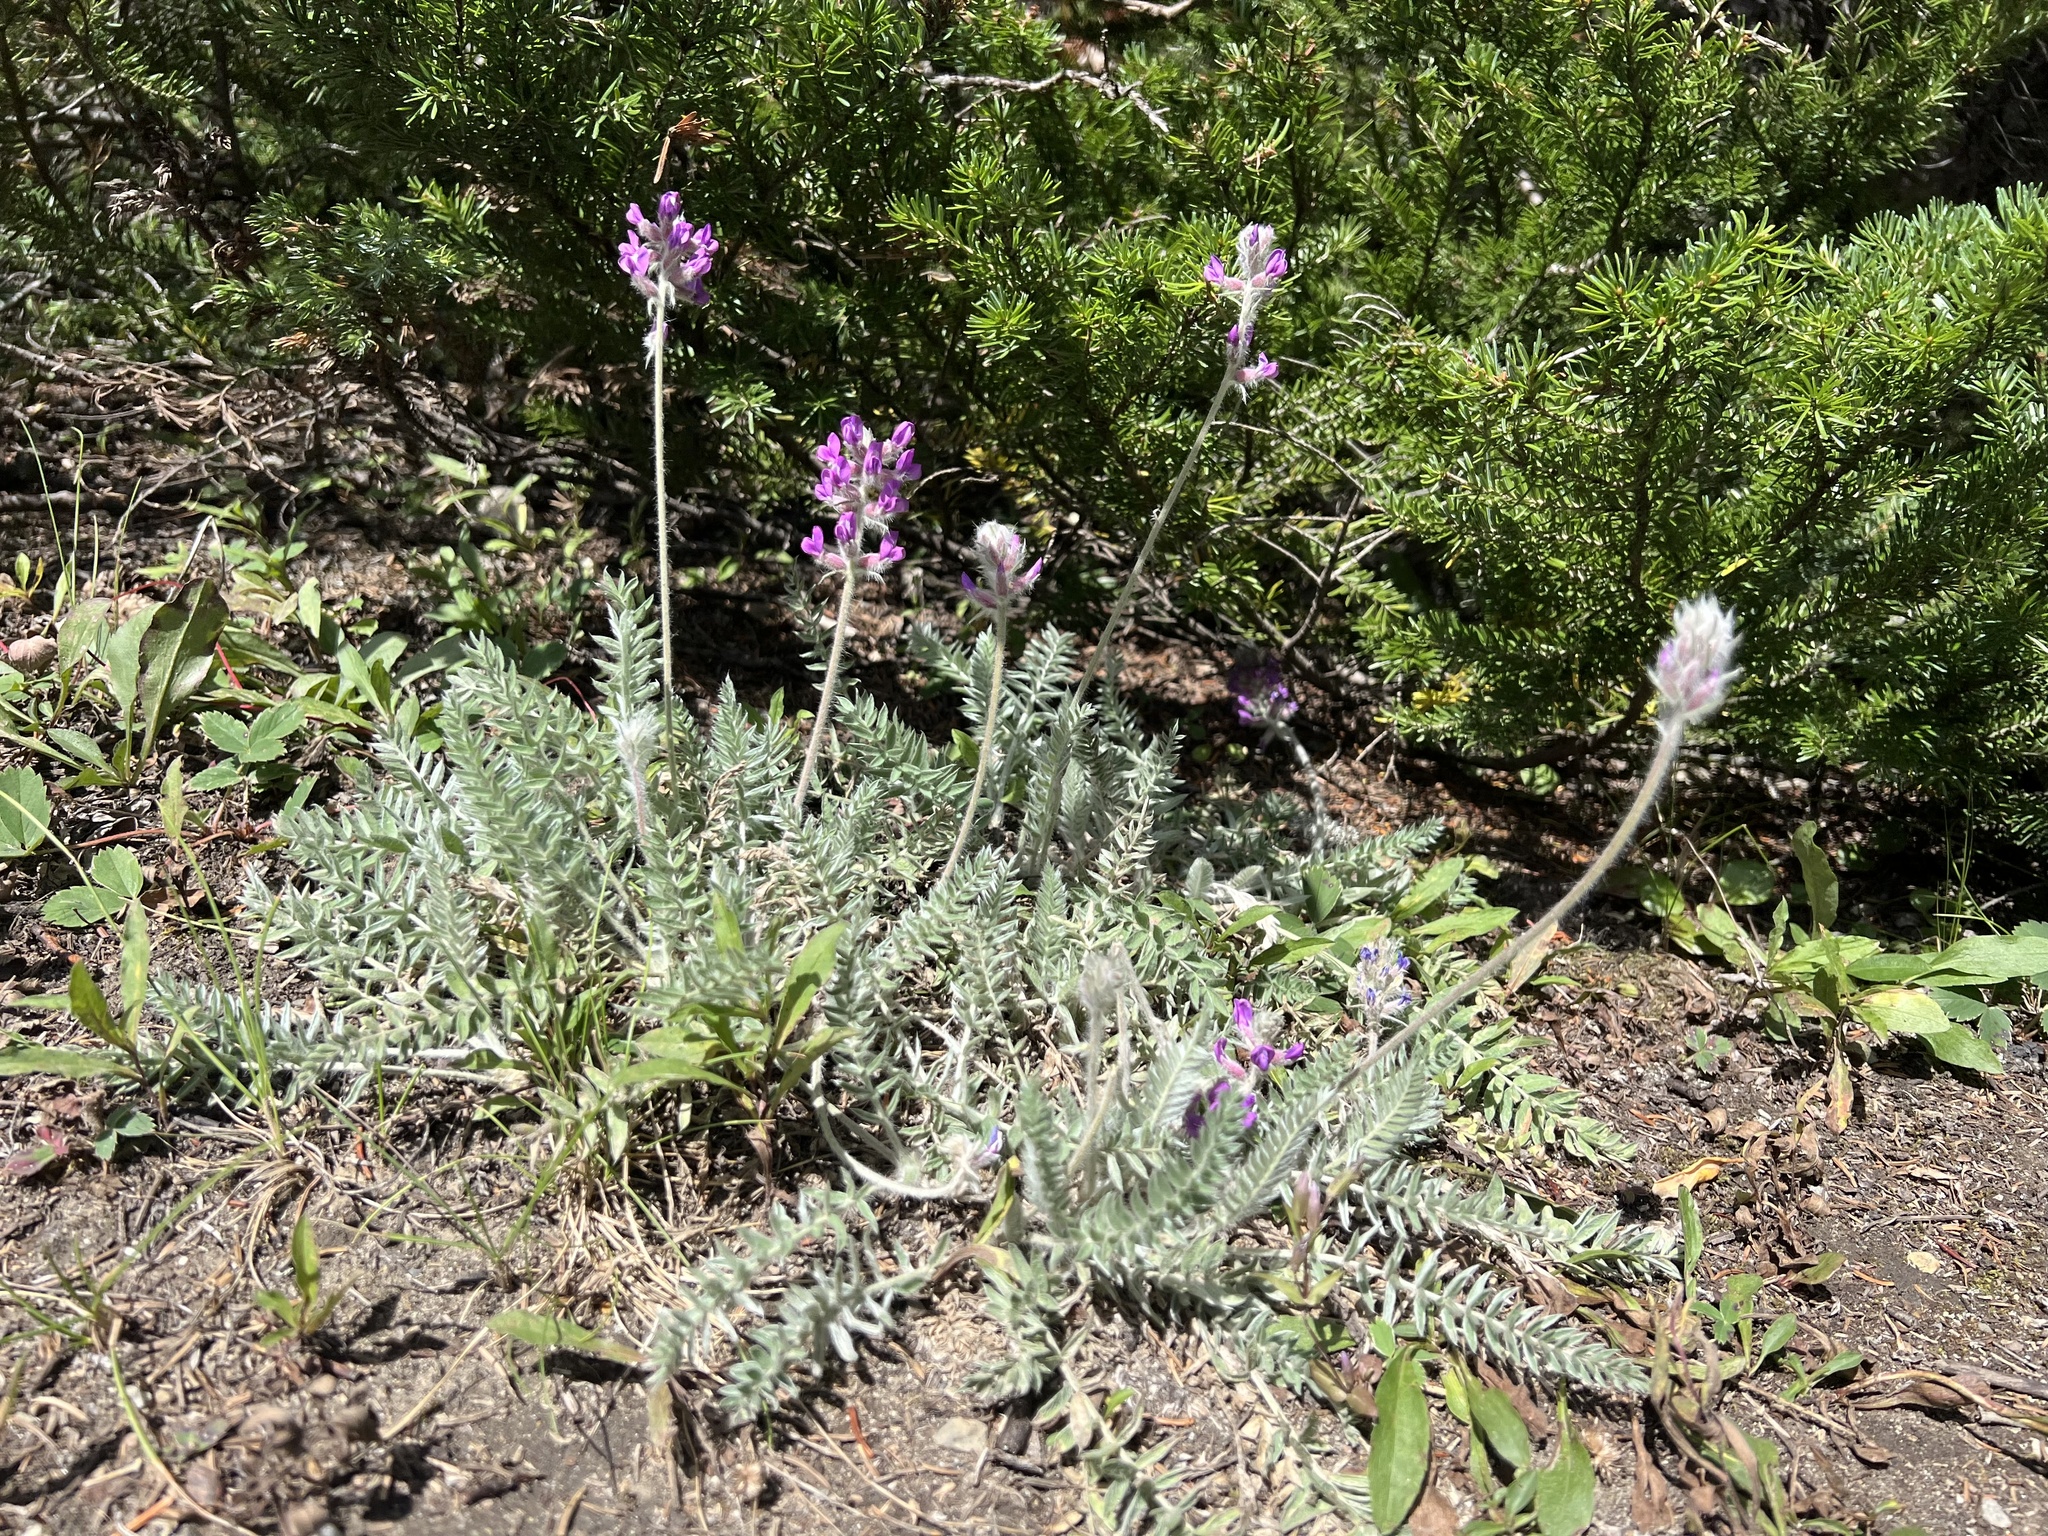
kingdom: Plantae
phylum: Tracheophyta
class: Magnoliopsida
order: Fabales
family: Fabaceae
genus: Oxytropis
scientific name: Oxytropis splendens
